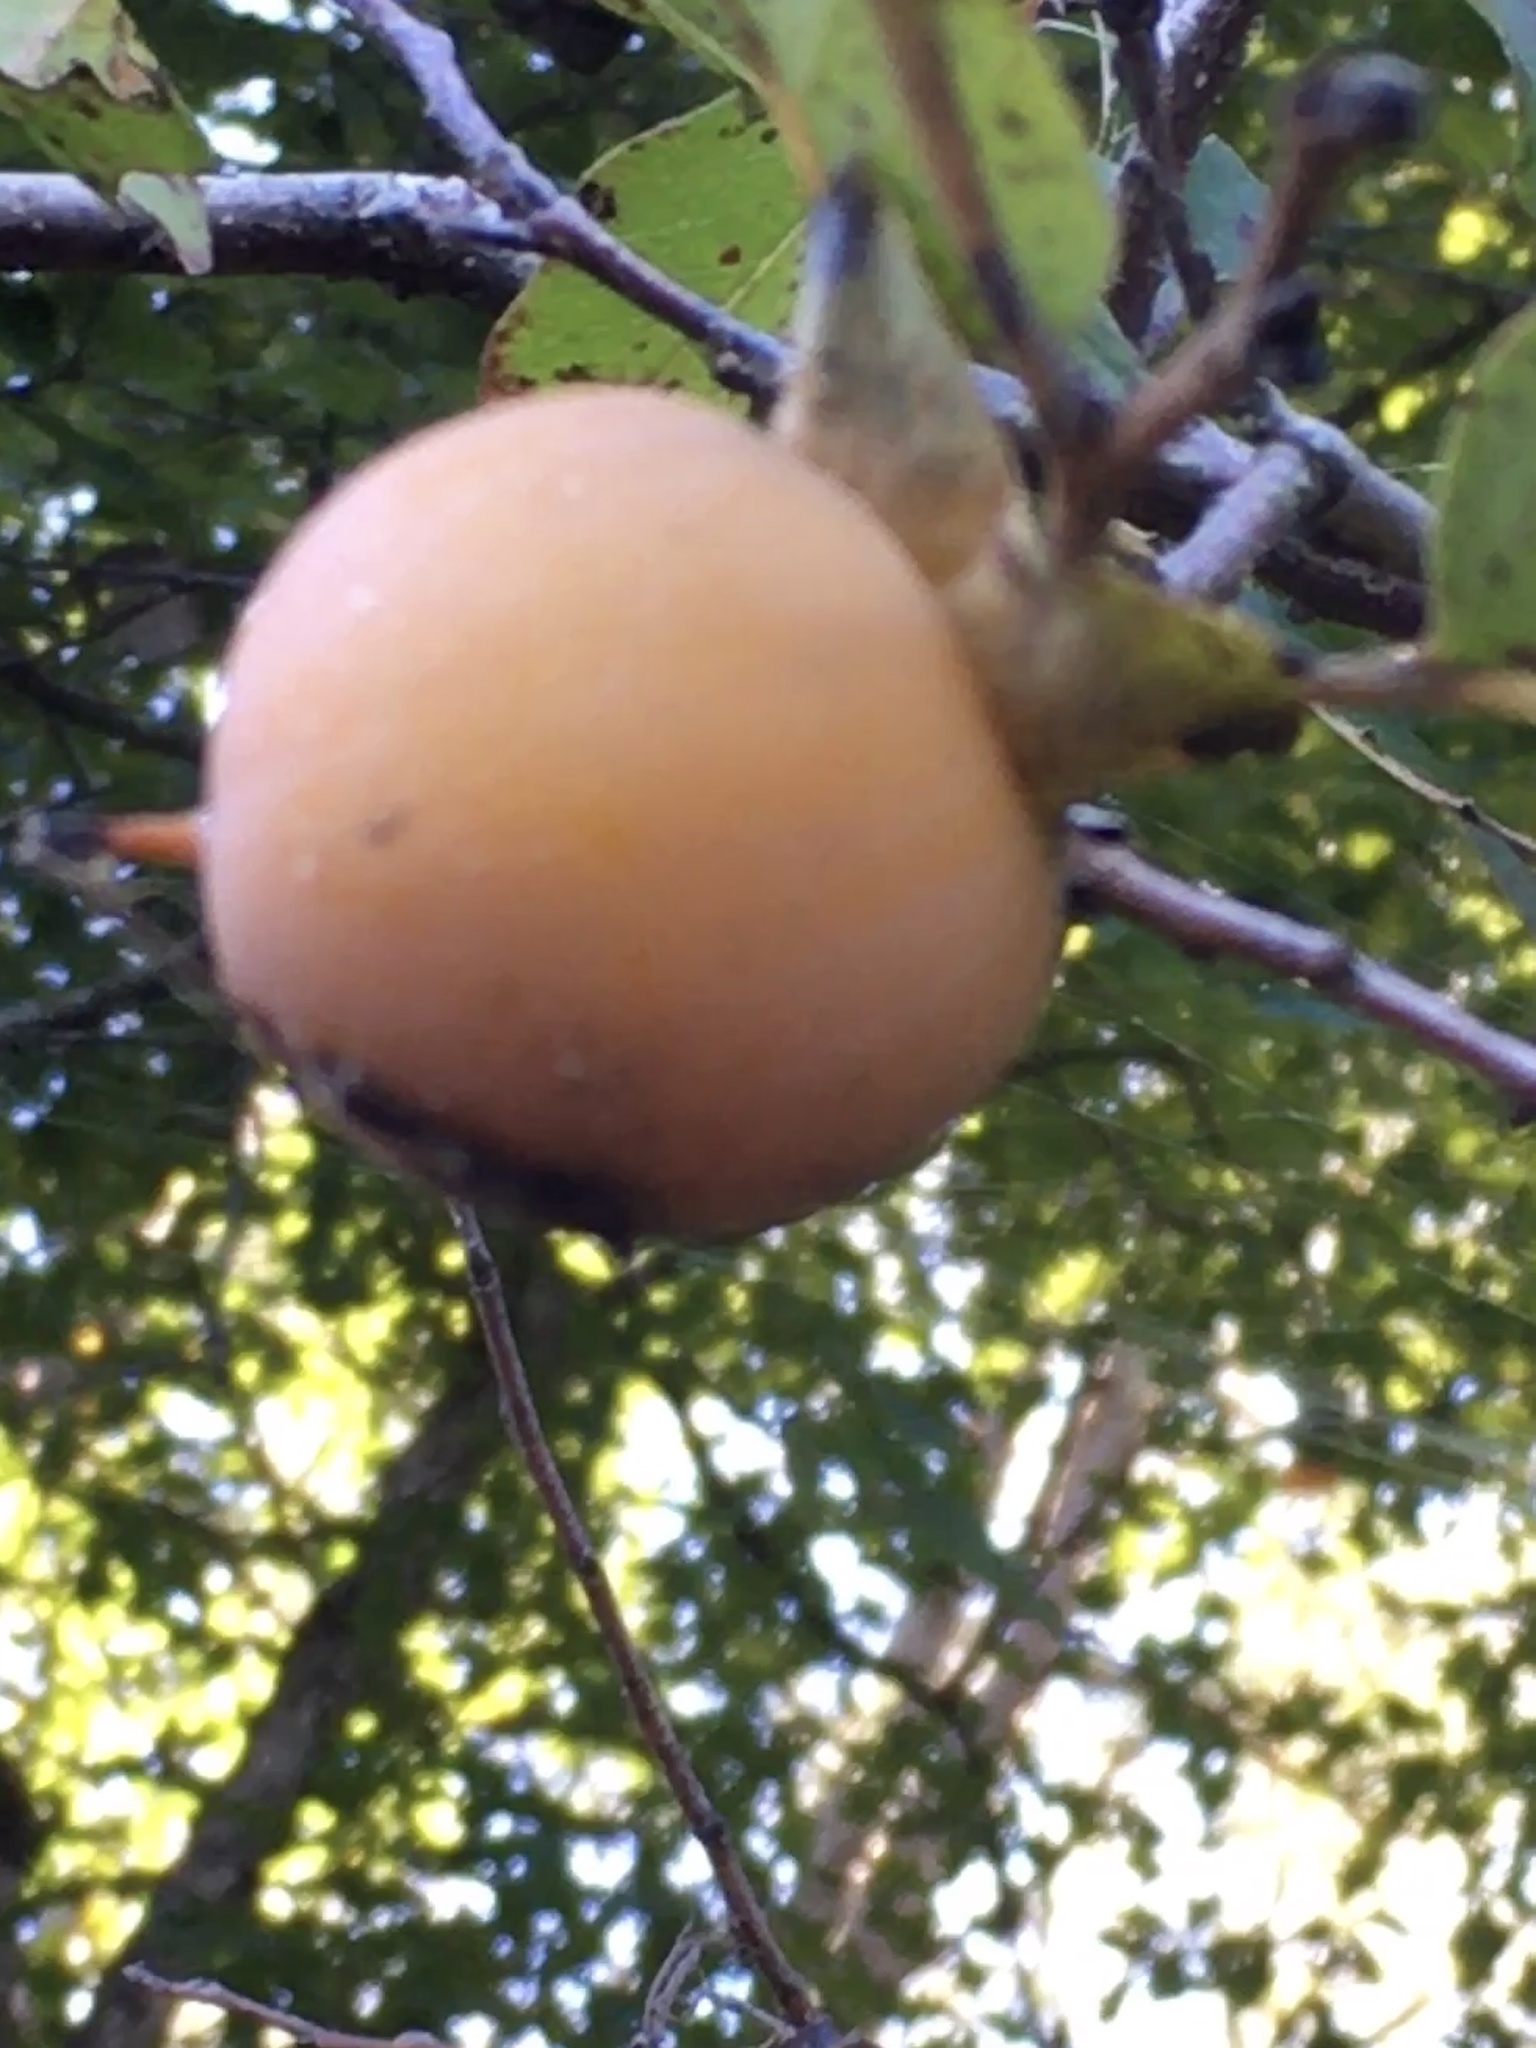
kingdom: Plantae
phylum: Tracheophyta
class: Magnoliopsida
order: Ericales
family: Ebenaceae
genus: Diospyros
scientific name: Diospyros virginiana
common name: Persimmon
